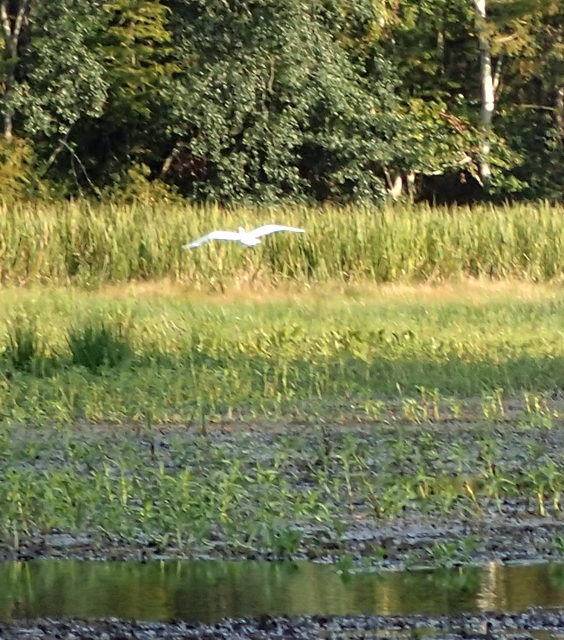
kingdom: Animalia
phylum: Chordata
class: Aves
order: Pelecaniformes
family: Ardeidae
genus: Ardea
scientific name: Ardea alba
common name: Great egret
